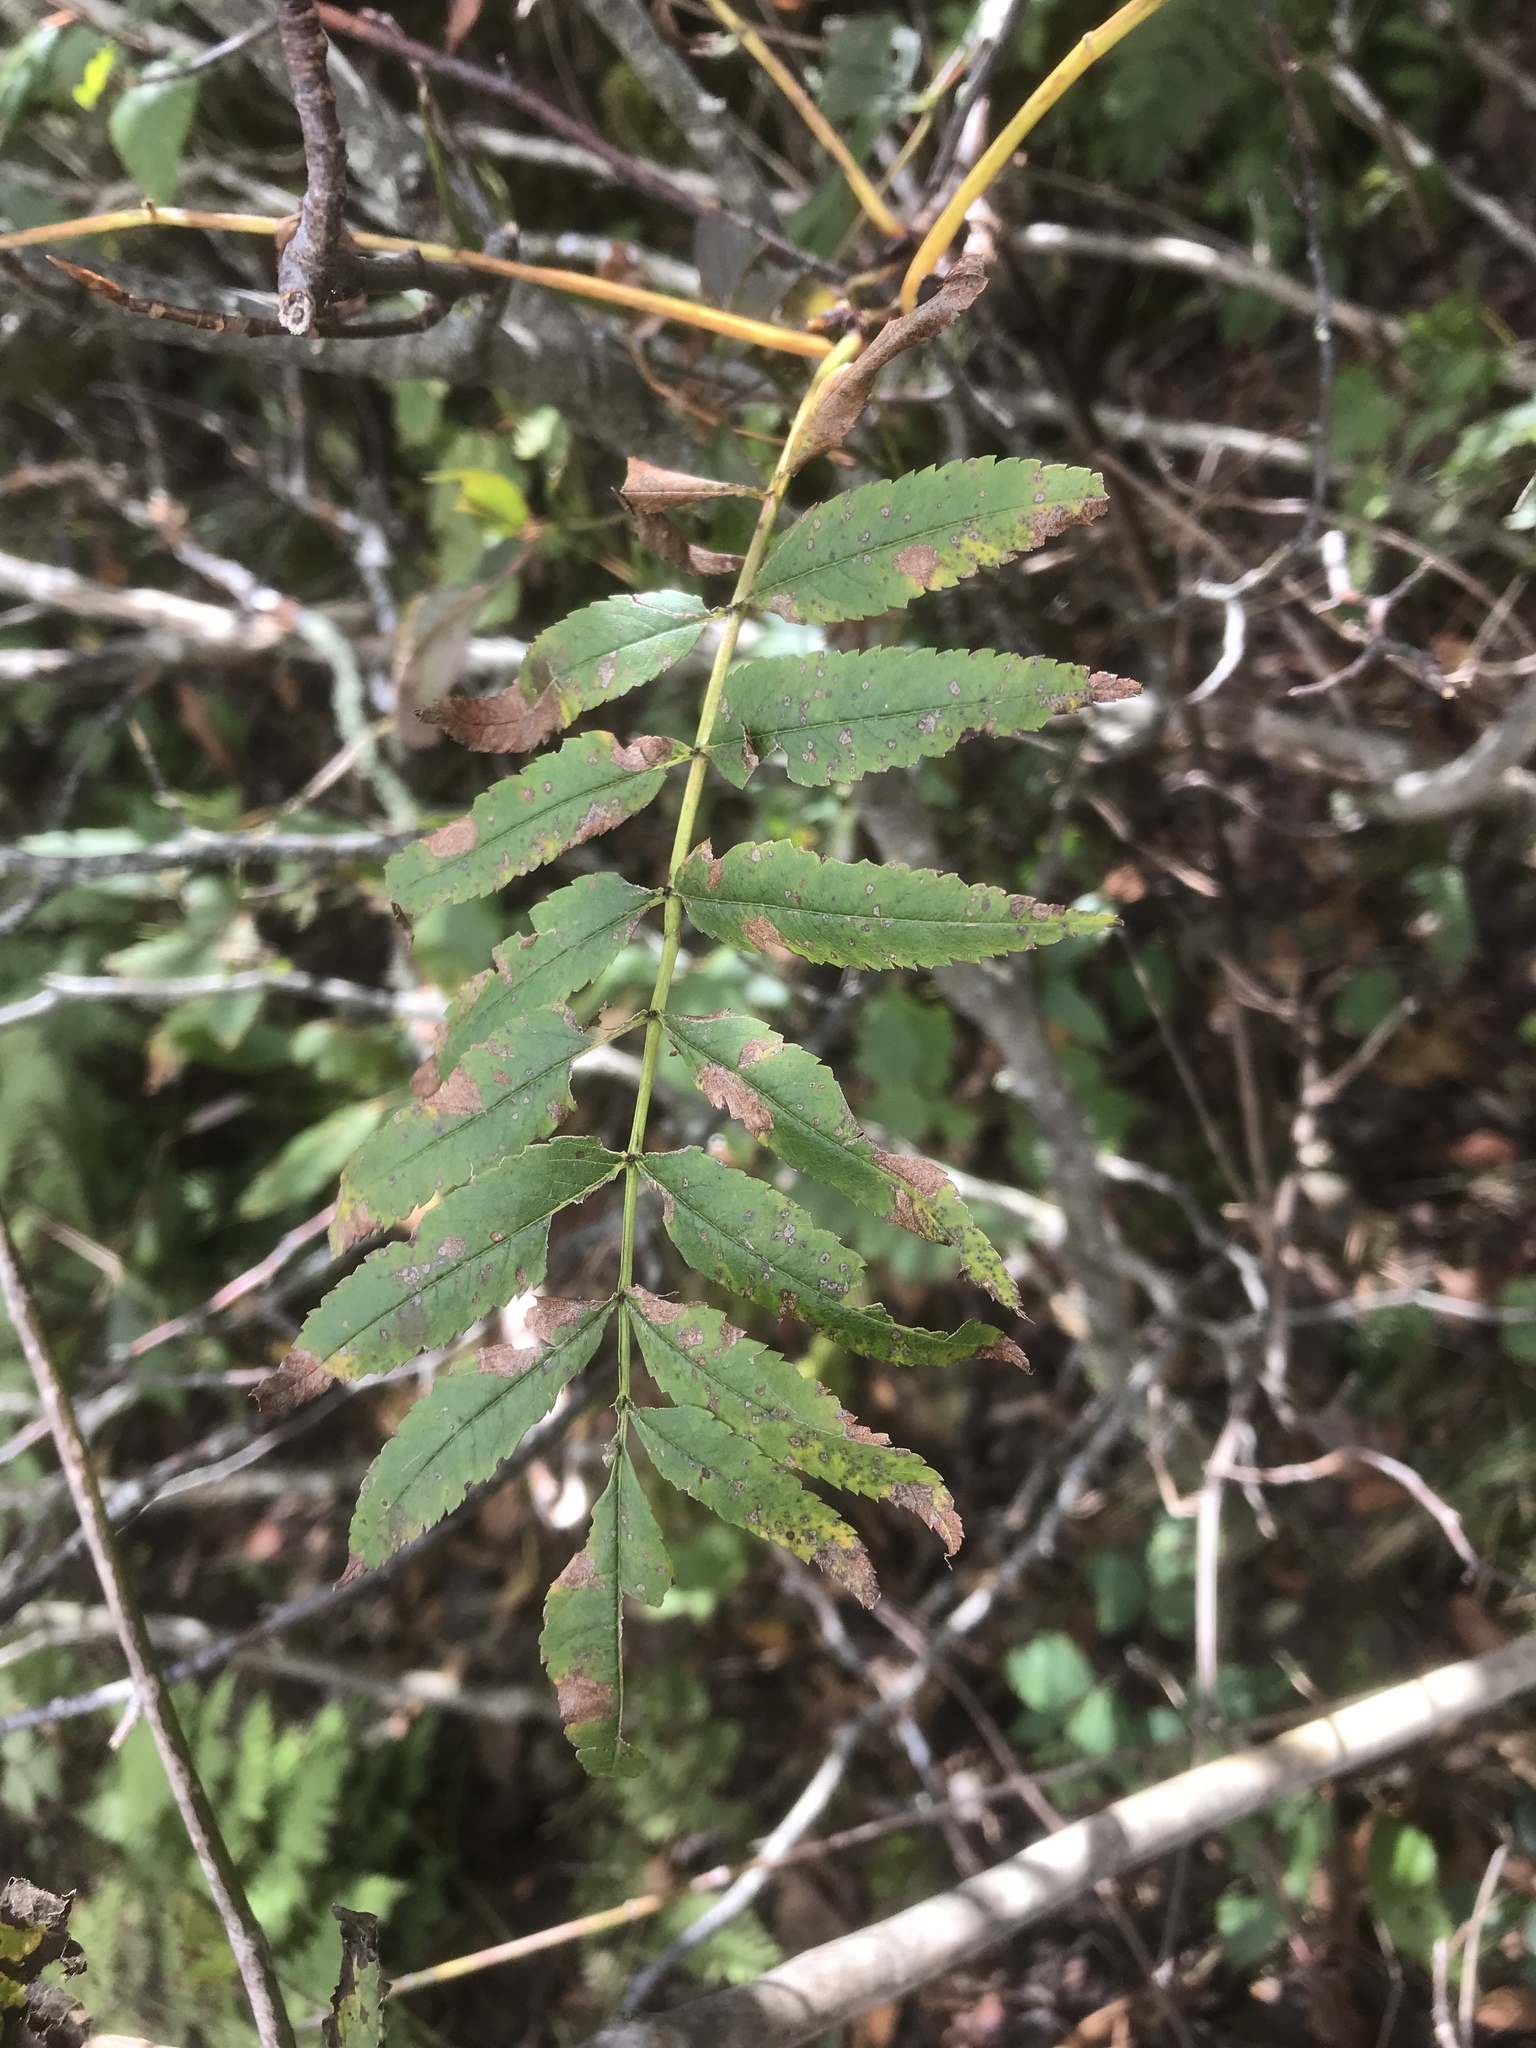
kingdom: Plantae
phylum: Tracheophyta
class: Magnoliopsida
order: Rosales
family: Rosaceae
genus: Sorbus
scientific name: Sorbus americana
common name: American mountain-ash
